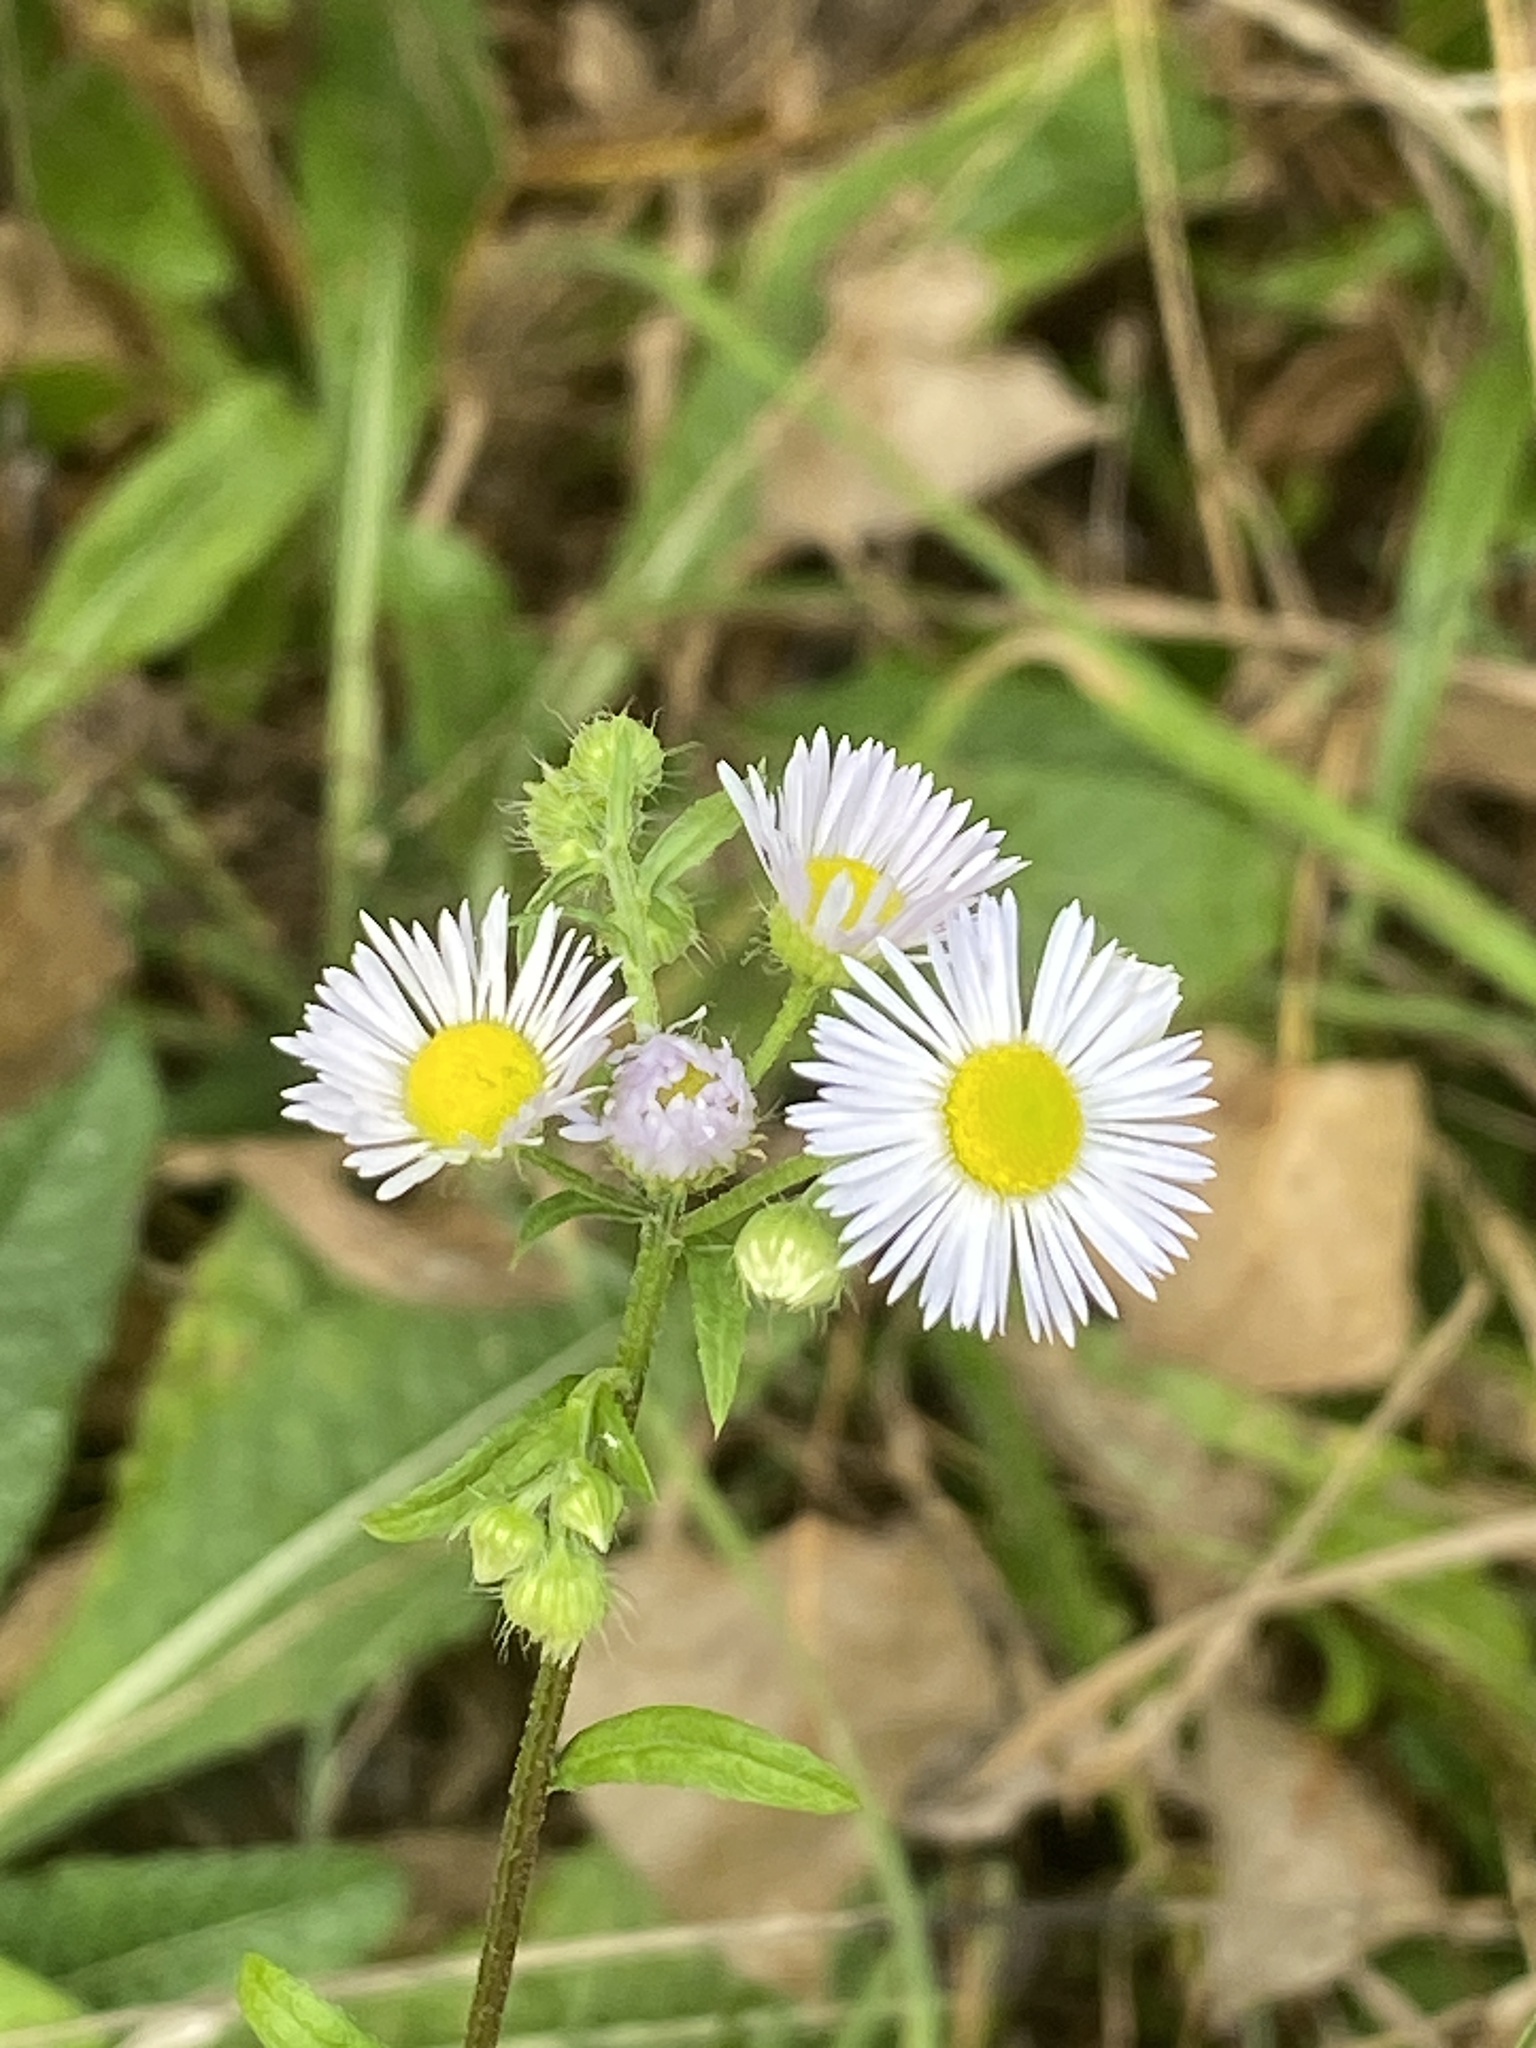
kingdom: Plantae
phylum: Tracheophyta
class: Magnoliopsida
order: Asterales
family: Asteraceae
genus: Erigeron
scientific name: Erigeron annuus
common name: Tall fleabane
